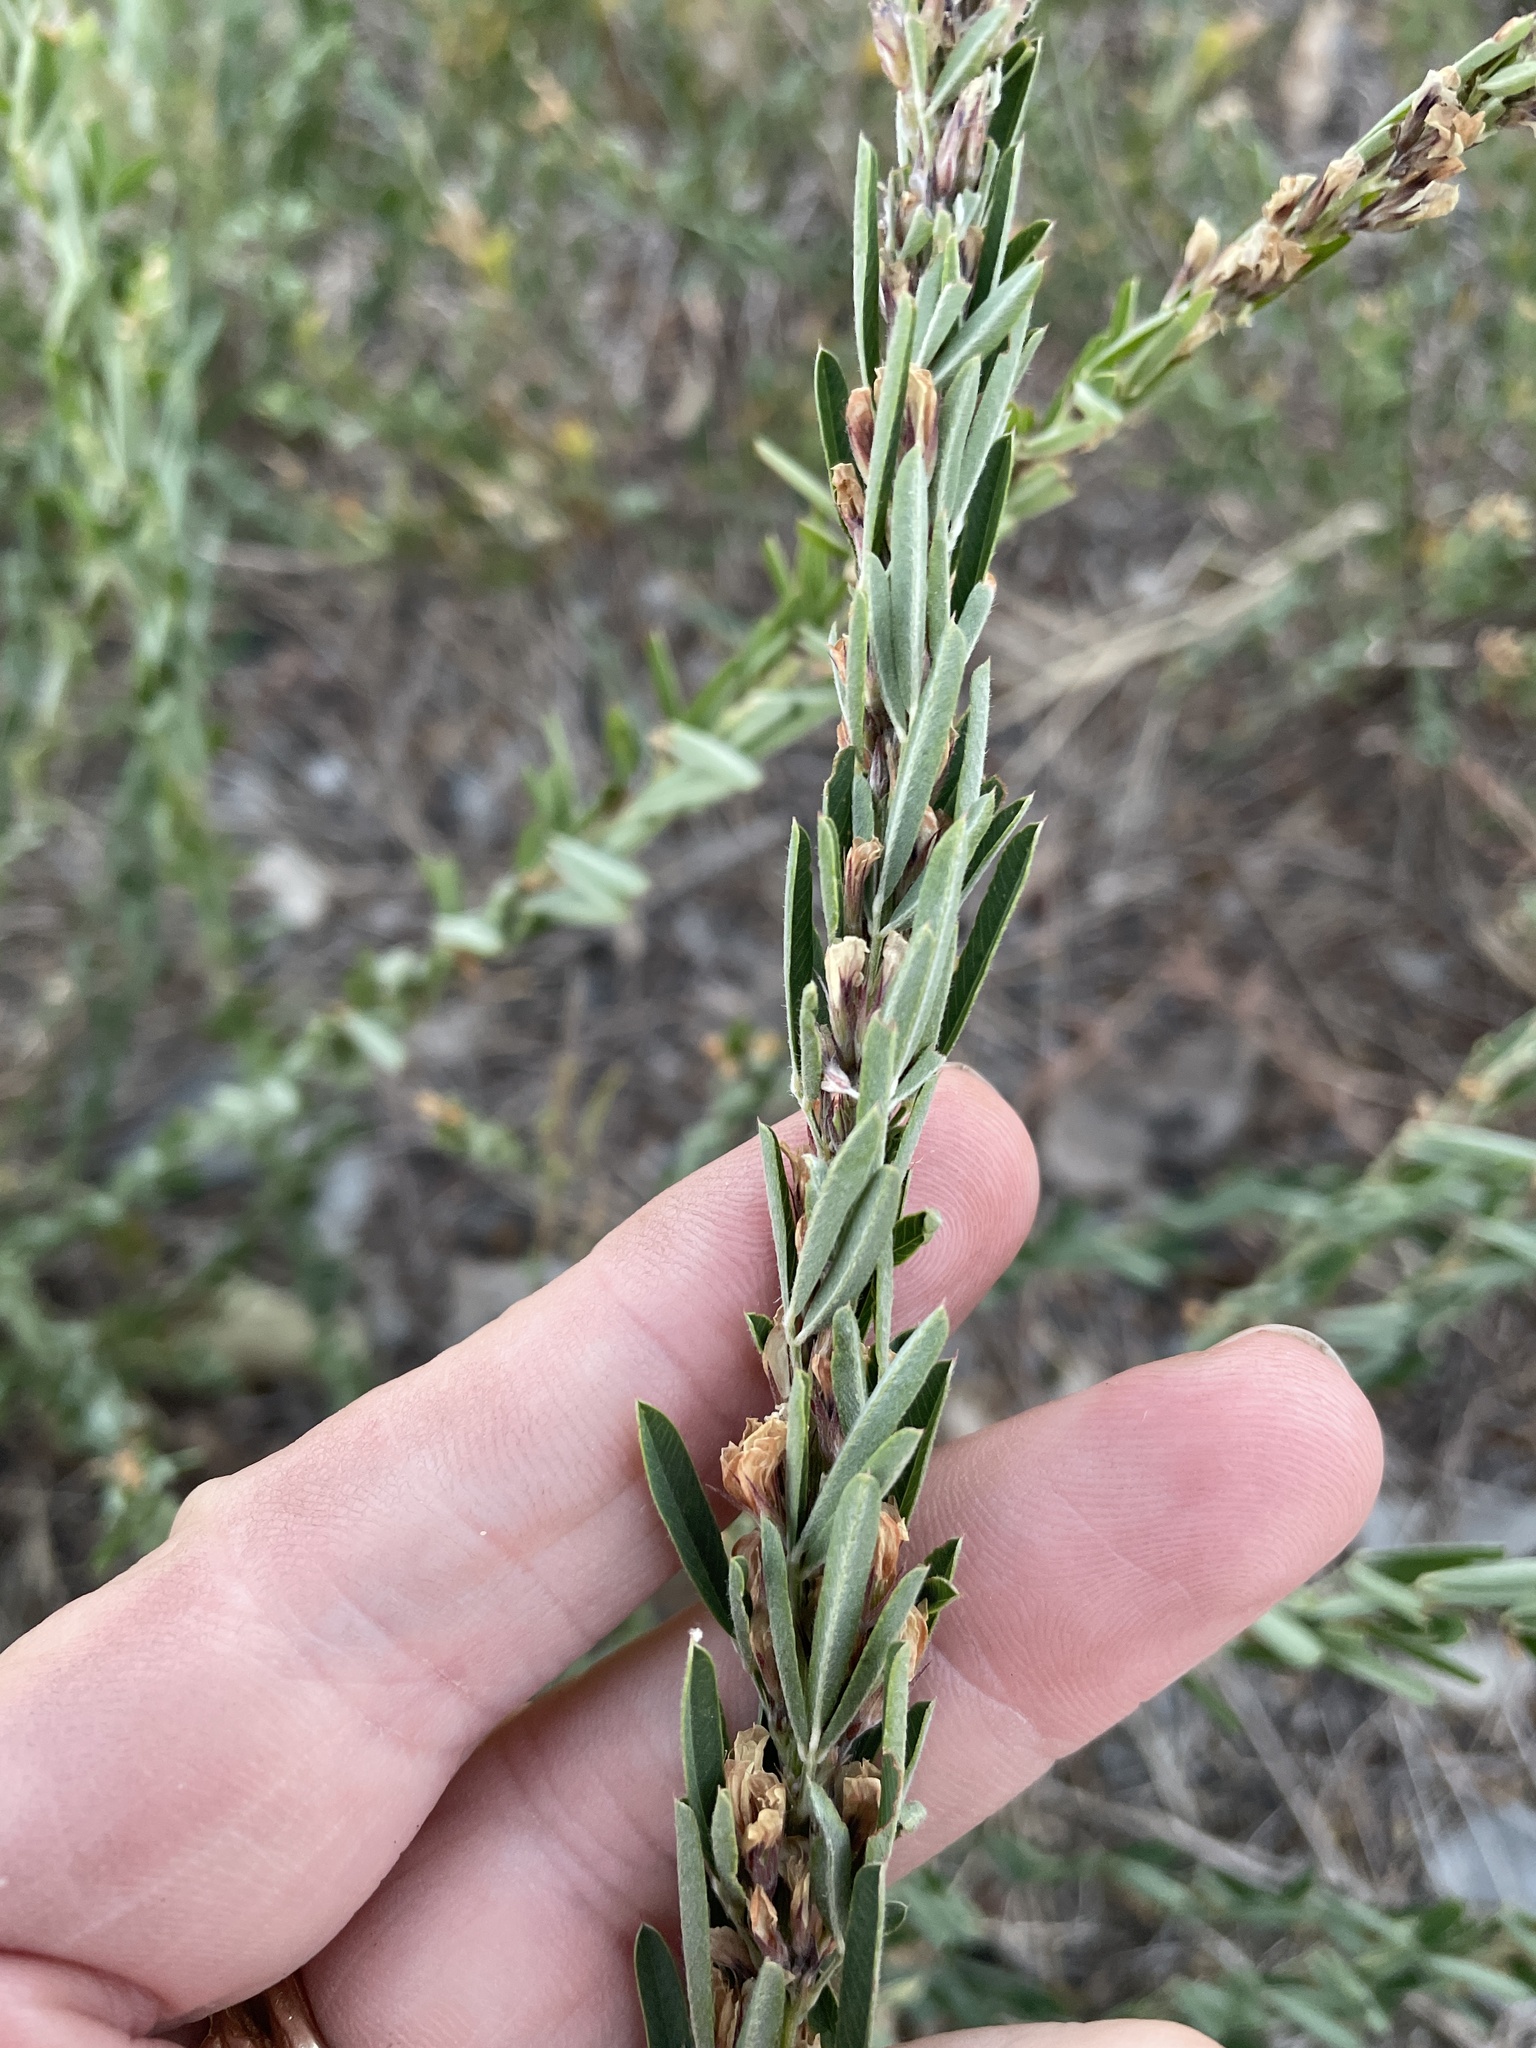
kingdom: Plantae
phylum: Tracheophyta
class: Magnoliopsida
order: Fabales
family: Fabaceae
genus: Lespedeza
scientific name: Lespedeza cuneata
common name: Chinese bush-clover
